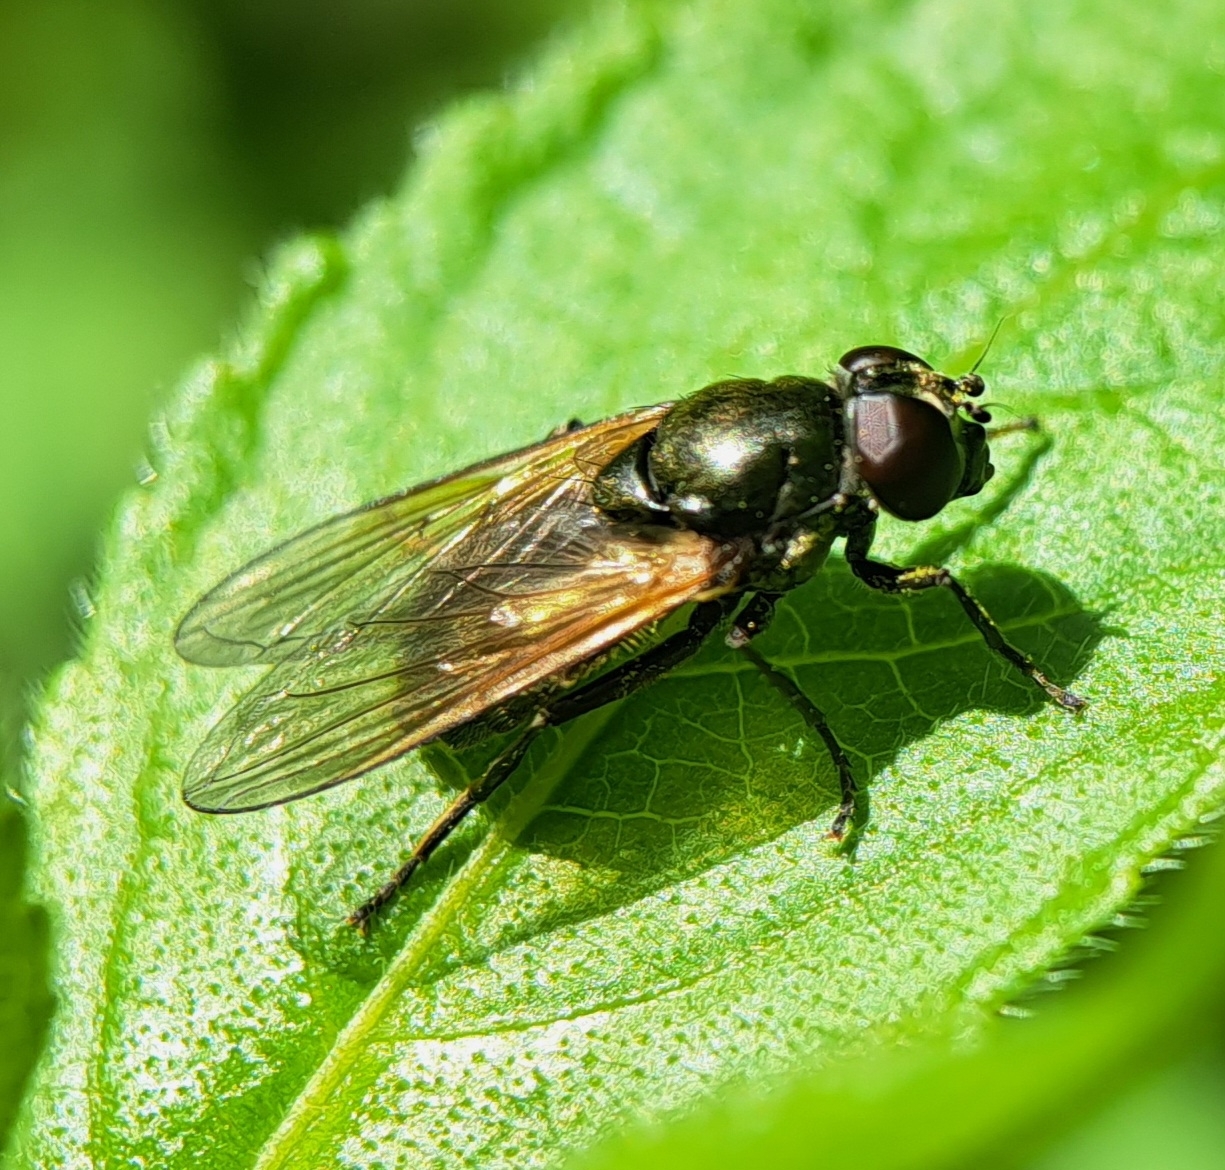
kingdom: Animalia
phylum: Arthropoda
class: Insecta
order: Diptera
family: Syrphidae
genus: Cheilosia
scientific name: Cheilosia impressa
